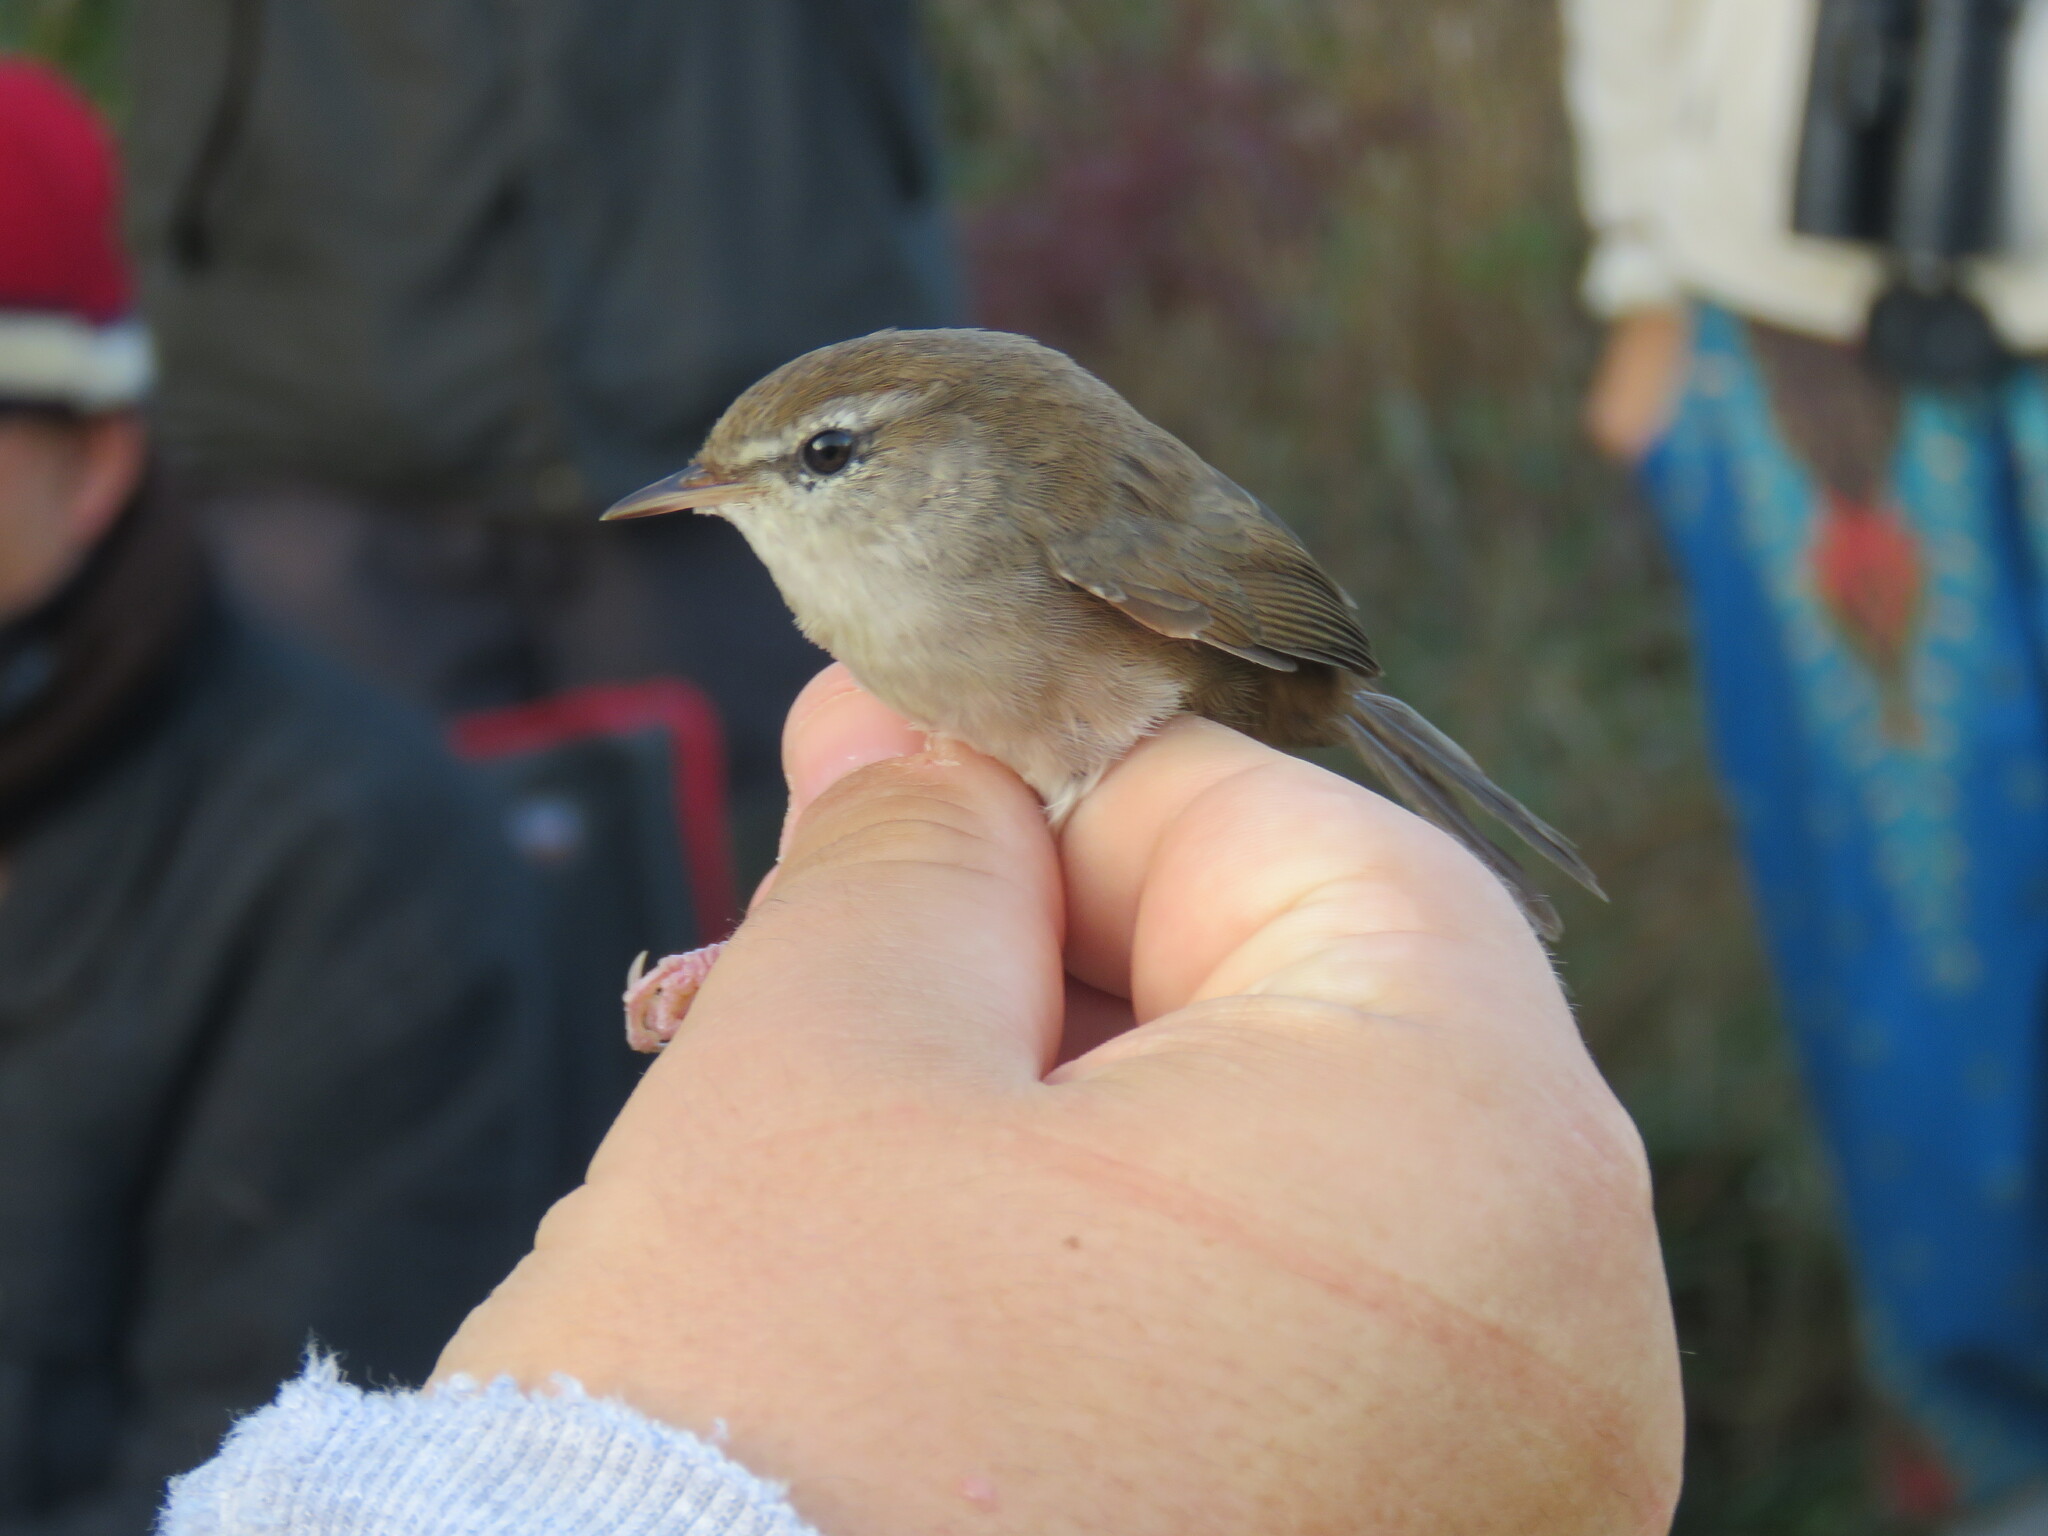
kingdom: Animalia
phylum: Chordata
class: Aves
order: Passeriformes
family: Cettiidae
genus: Cettia
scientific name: Cettia cetti
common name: Cetti's warbler
